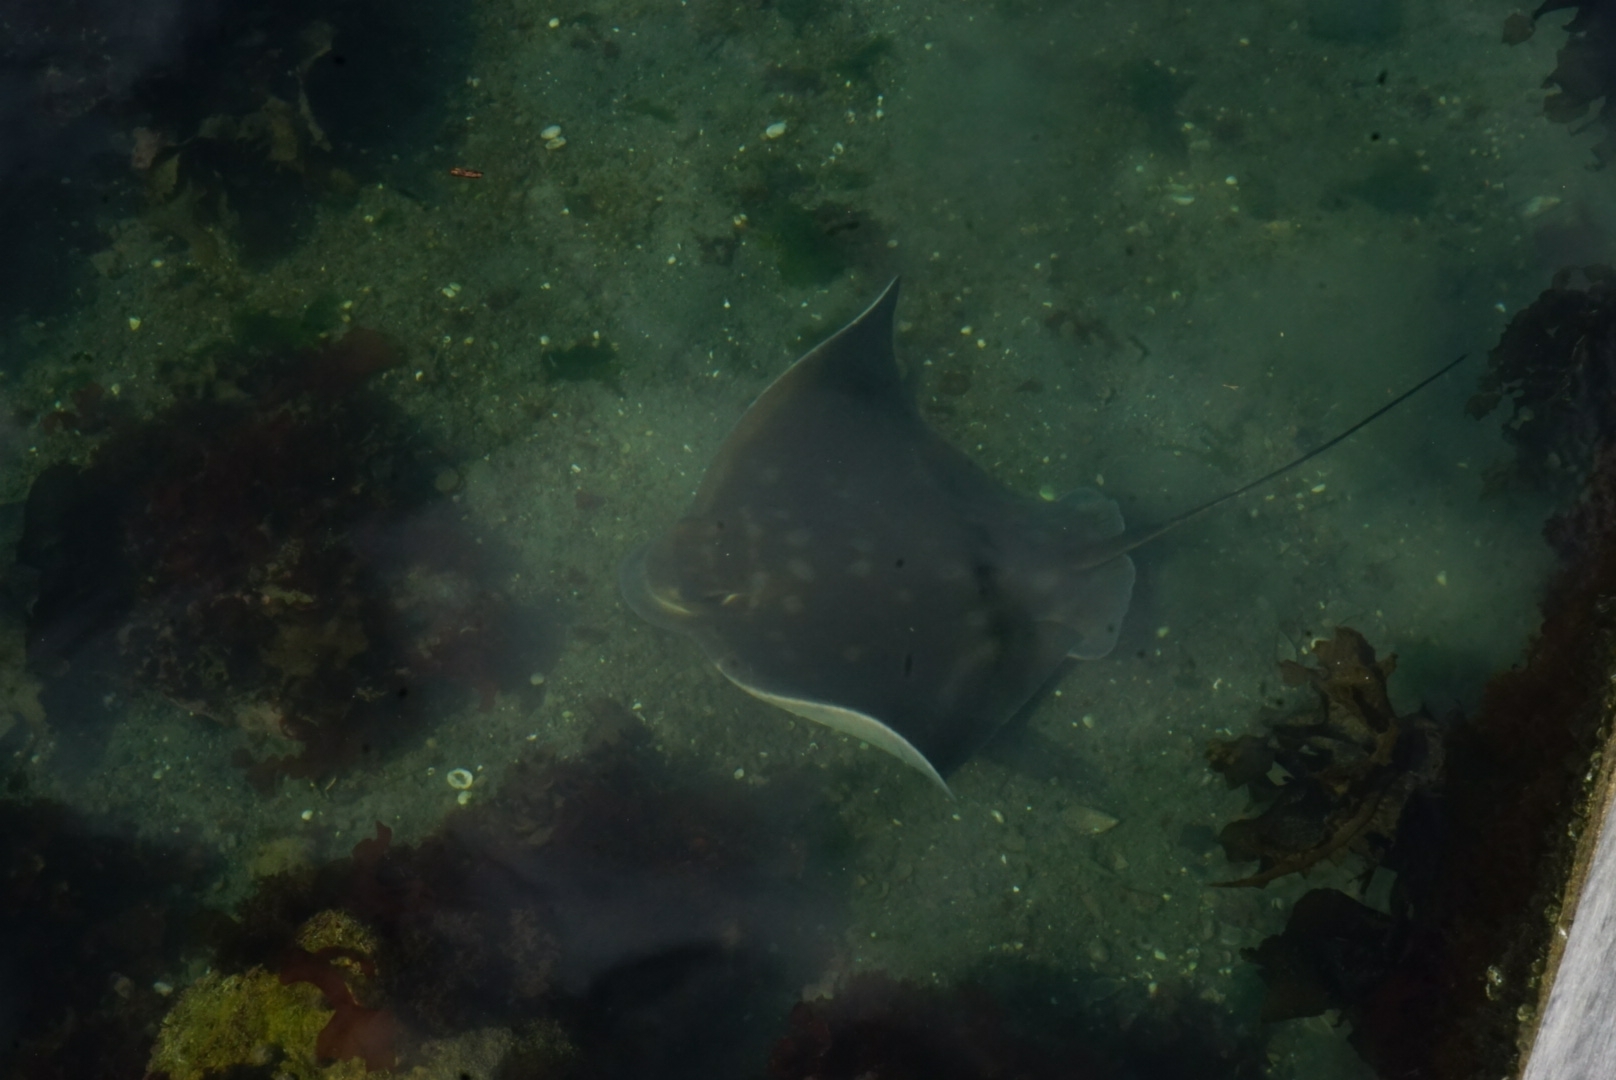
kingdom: Animalia
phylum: Chordata
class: Elasmobranchii
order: Myliobatiformes
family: Myliobatidae
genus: Myliobatis
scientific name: Myliobatis tenuicaudatus
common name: Eagle ray
